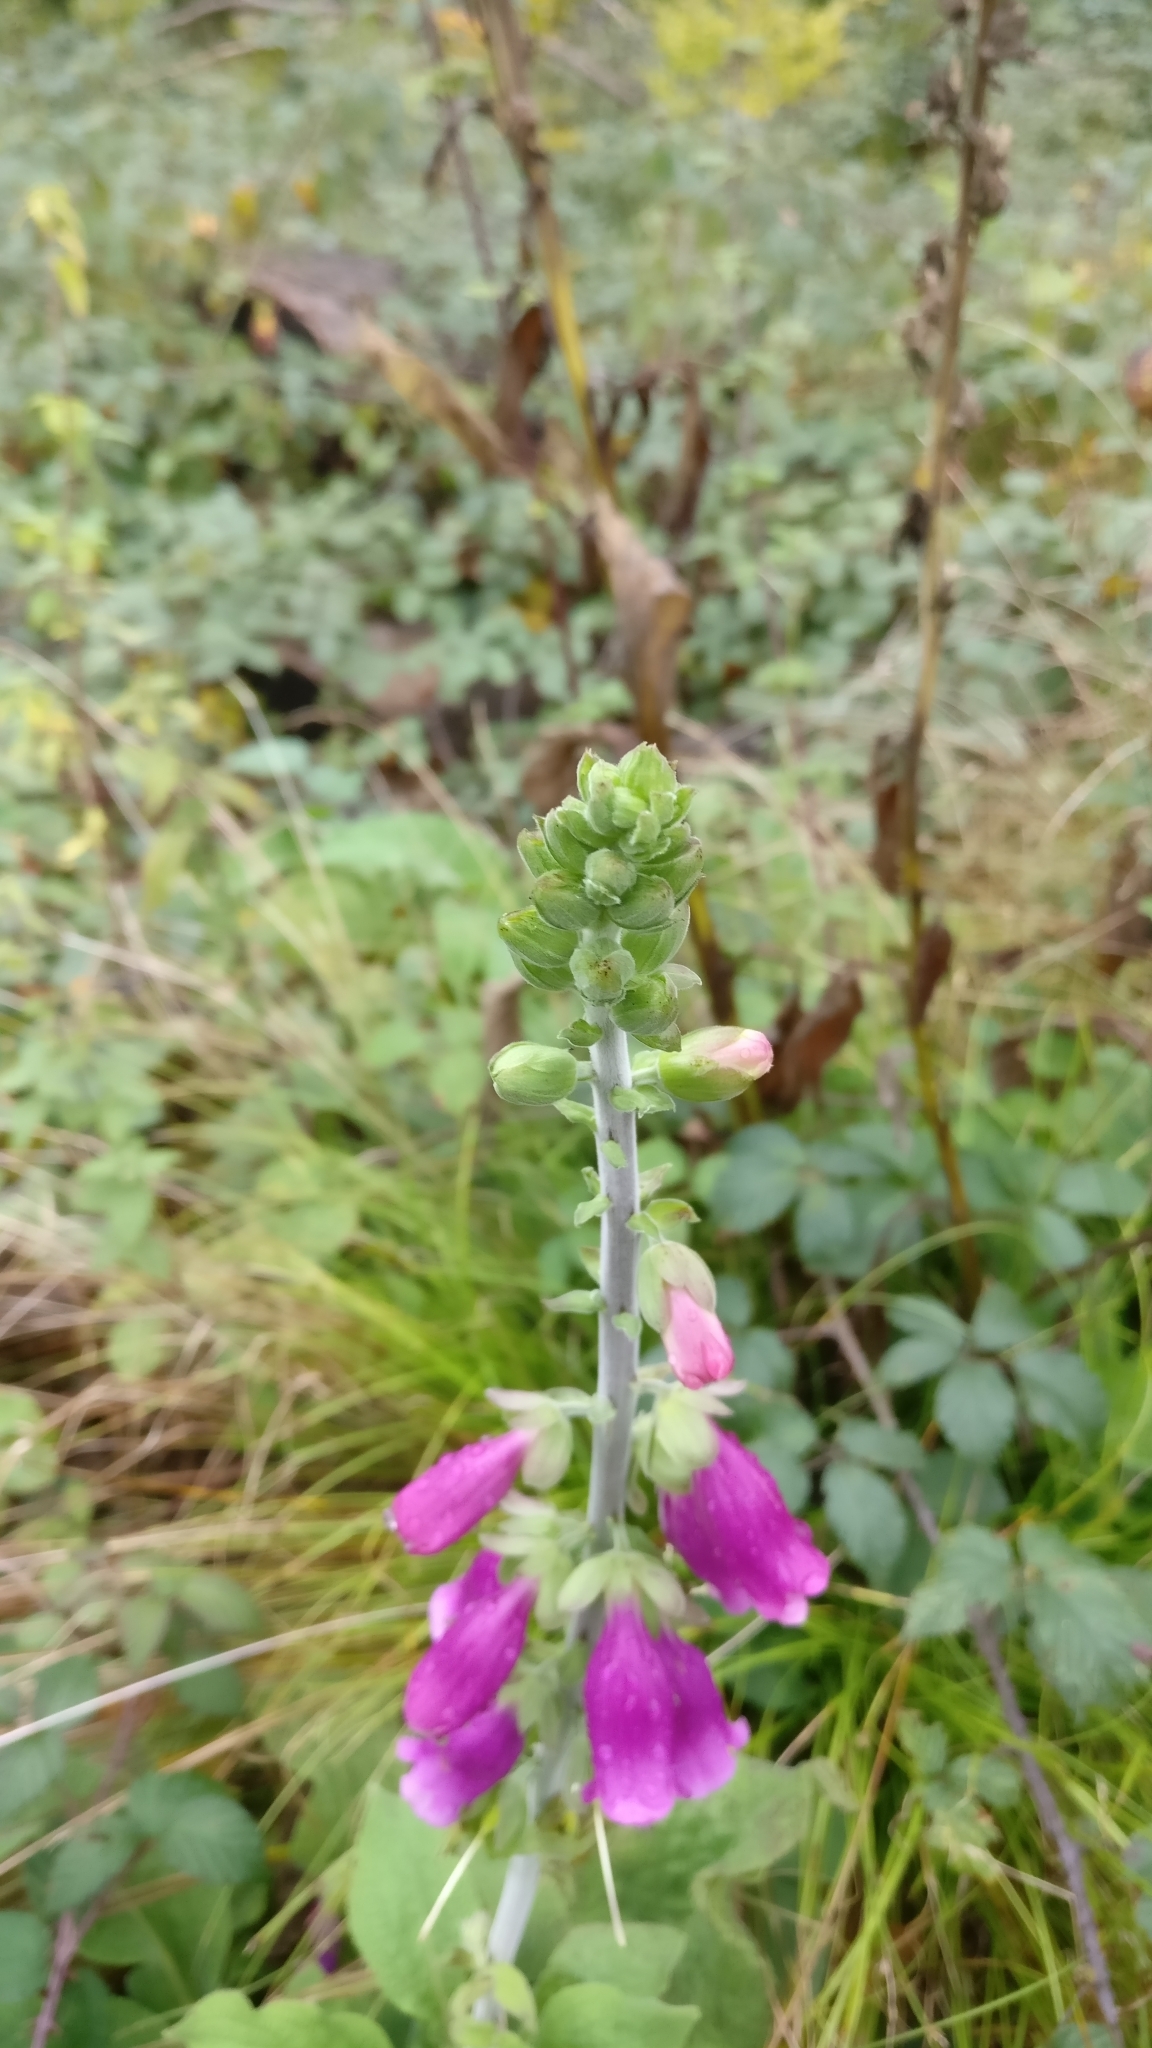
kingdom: Plantae
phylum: Tracheophyta
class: Magnoliopsida
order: Lamiales
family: Plantaginaceae
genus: Digitalis
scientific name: Digitalis purpurea
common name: Foxglove
